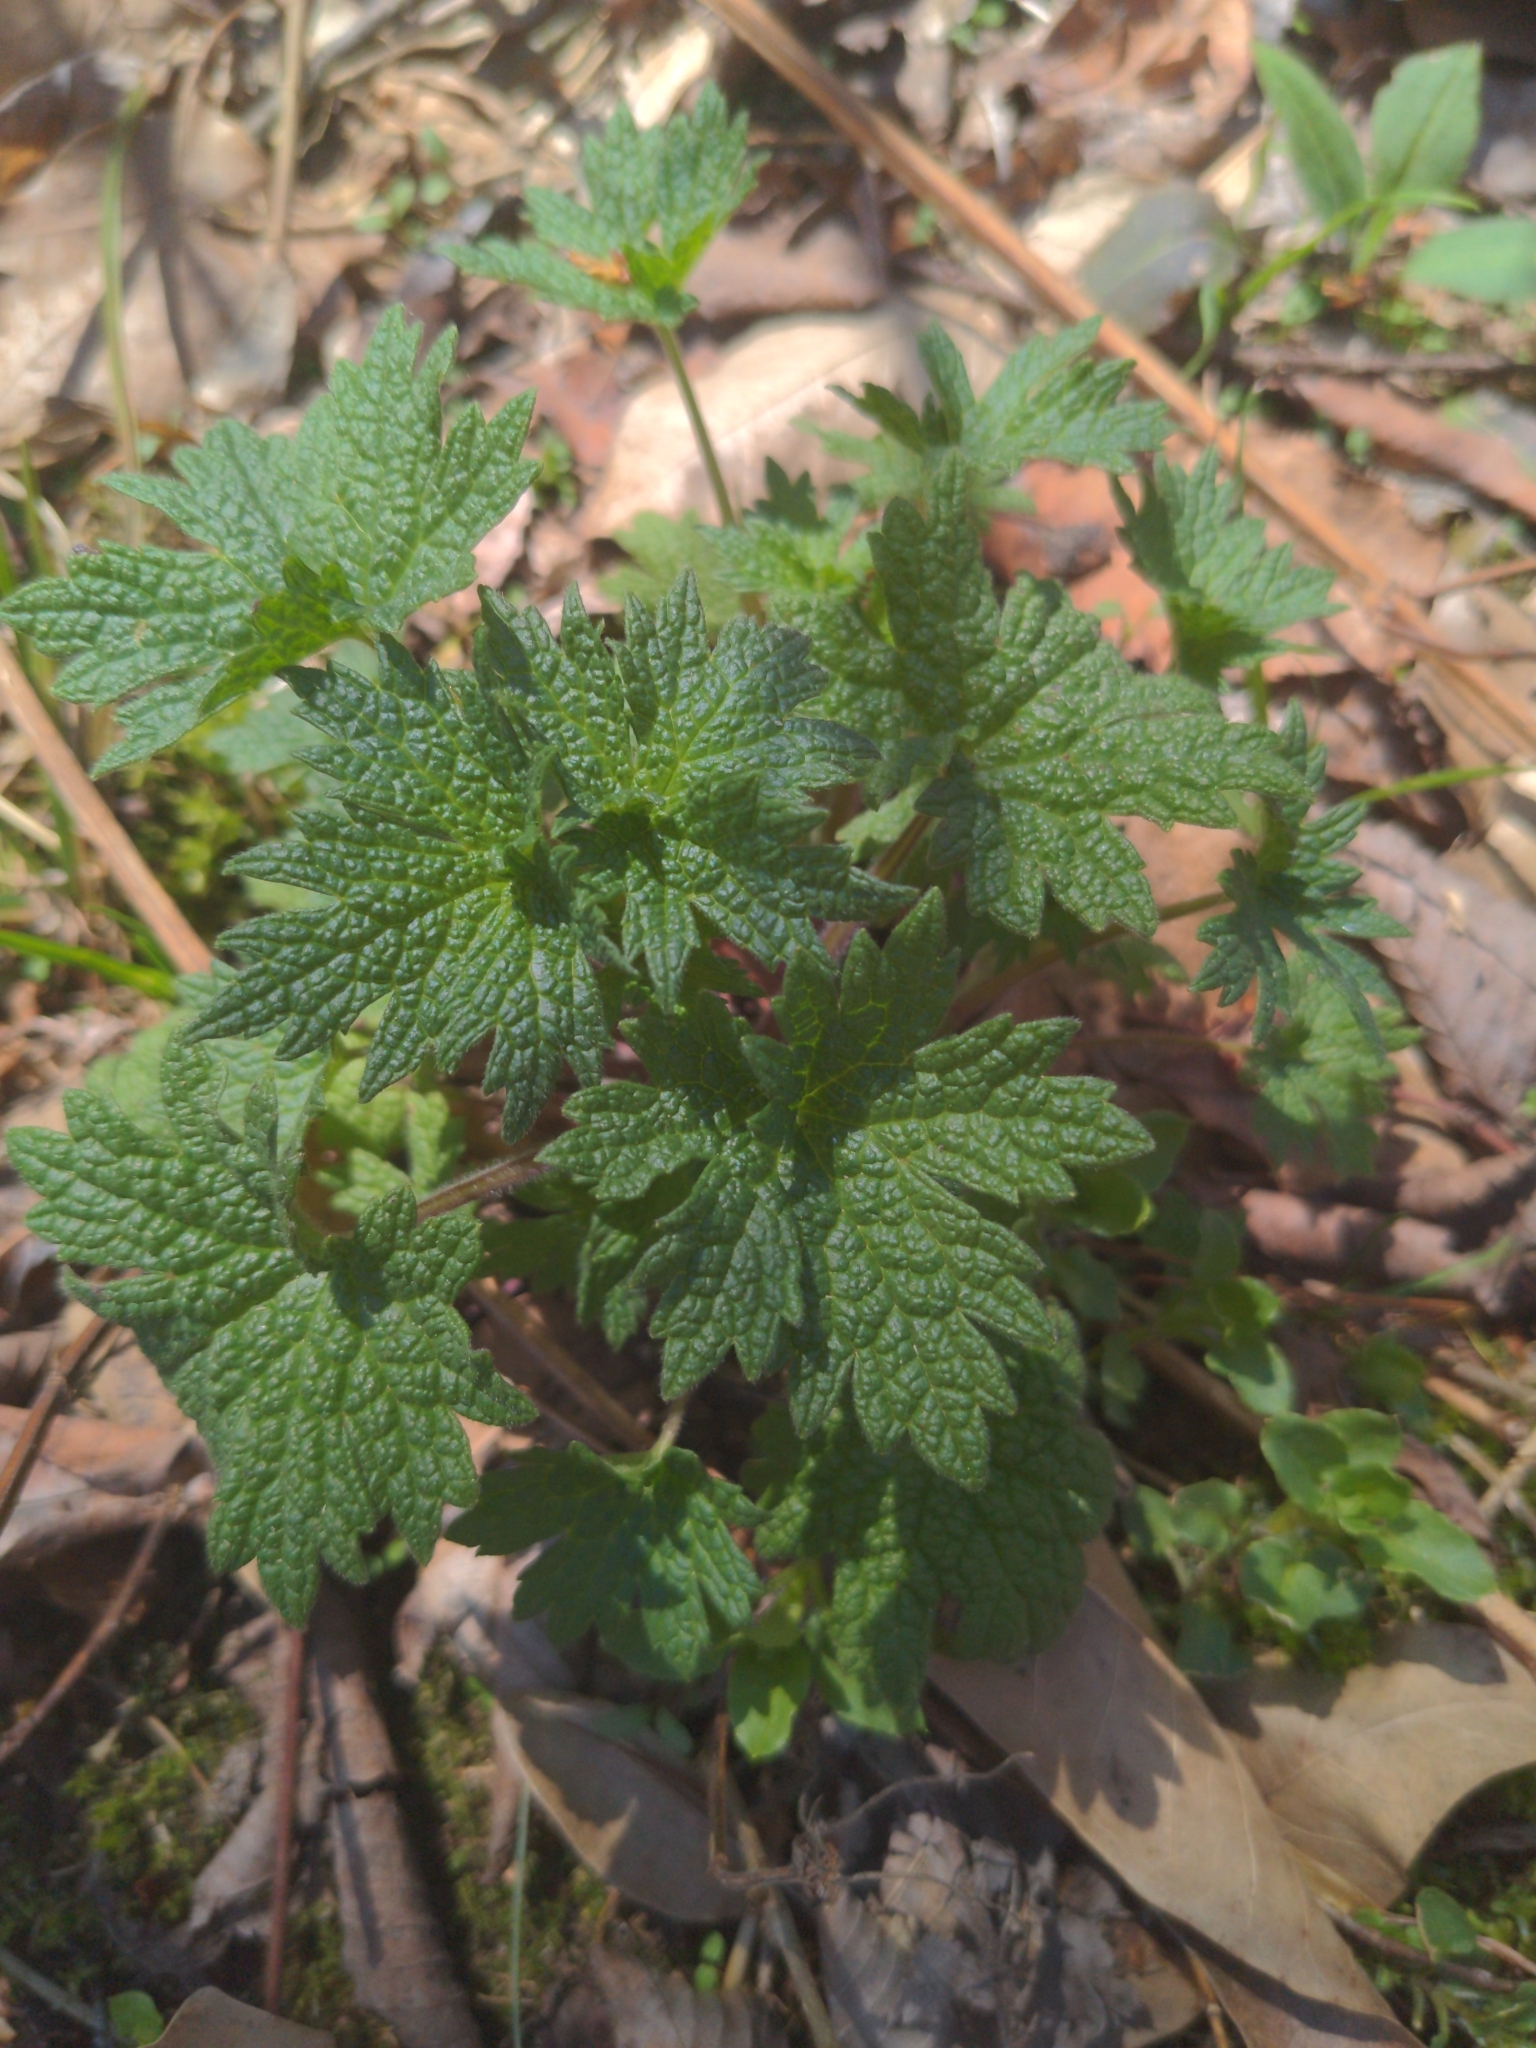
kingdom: Plantae
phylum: Tracheophyta
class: Magnoliopsida
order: Lamiales
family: Lamiaceae
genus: Leonurus
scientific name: Leonurus cardiaca
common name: Motherwort
